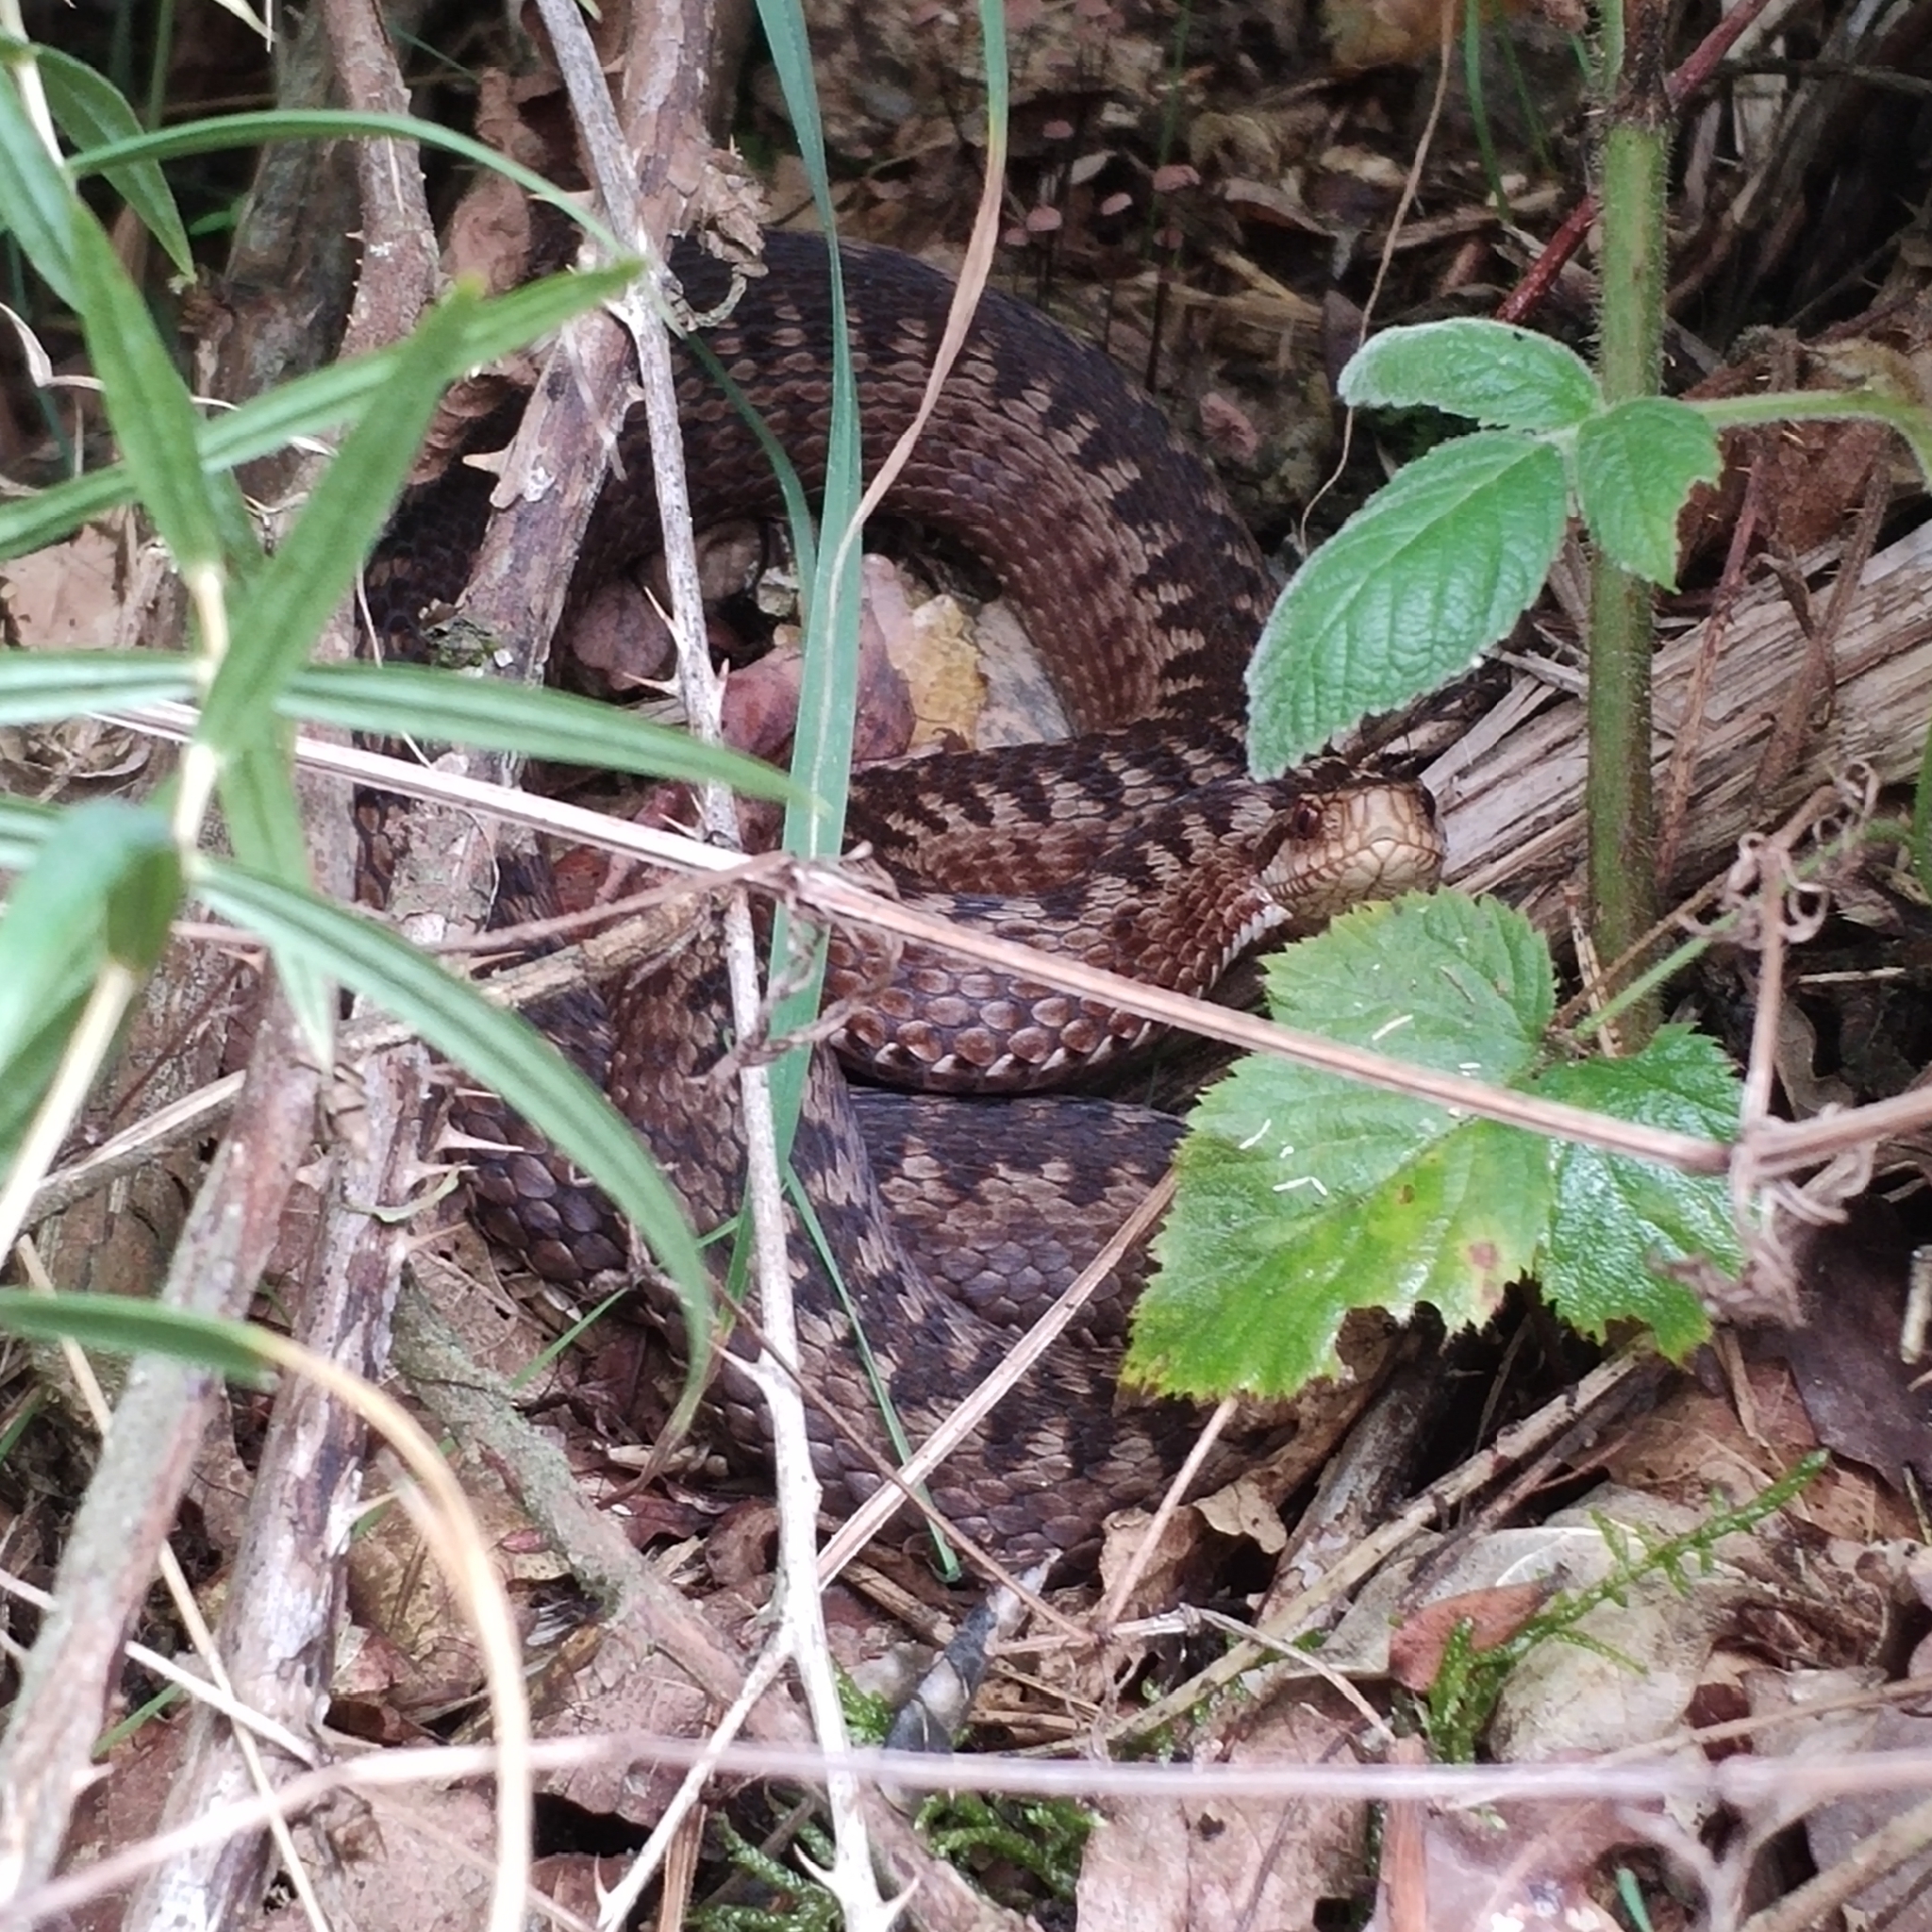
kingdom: Animalia
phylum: Chordata
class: Squamata
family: Viperidae
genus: Vipera
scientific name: Vipera berus
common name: Adder
